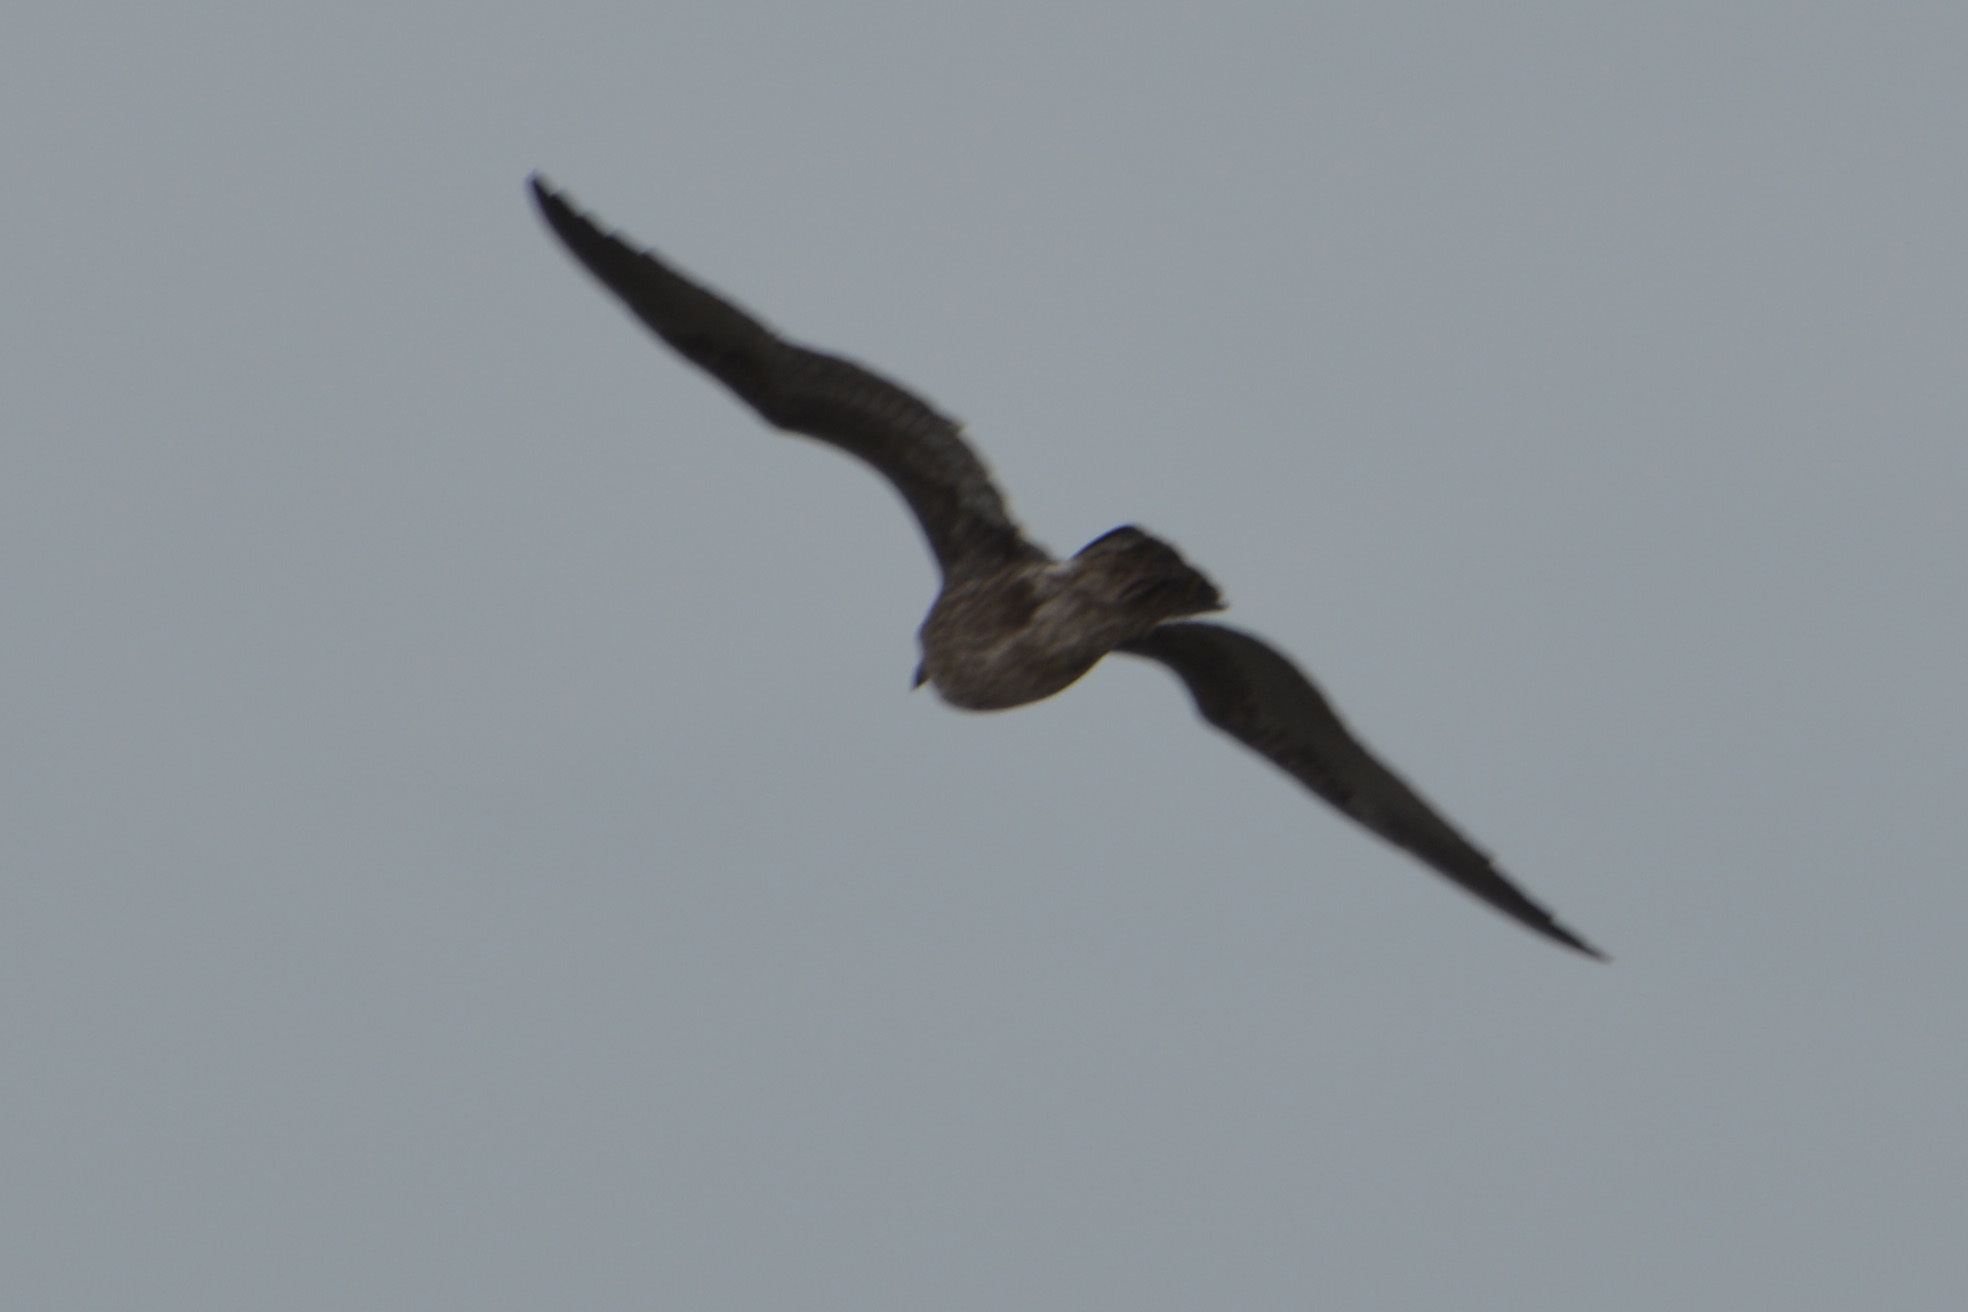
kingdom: Animalia
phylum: Chordata
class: Aves
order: Charadriiformes
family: Laridae
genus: Larus
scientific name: Larus dominicanus
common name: Kelp gull
